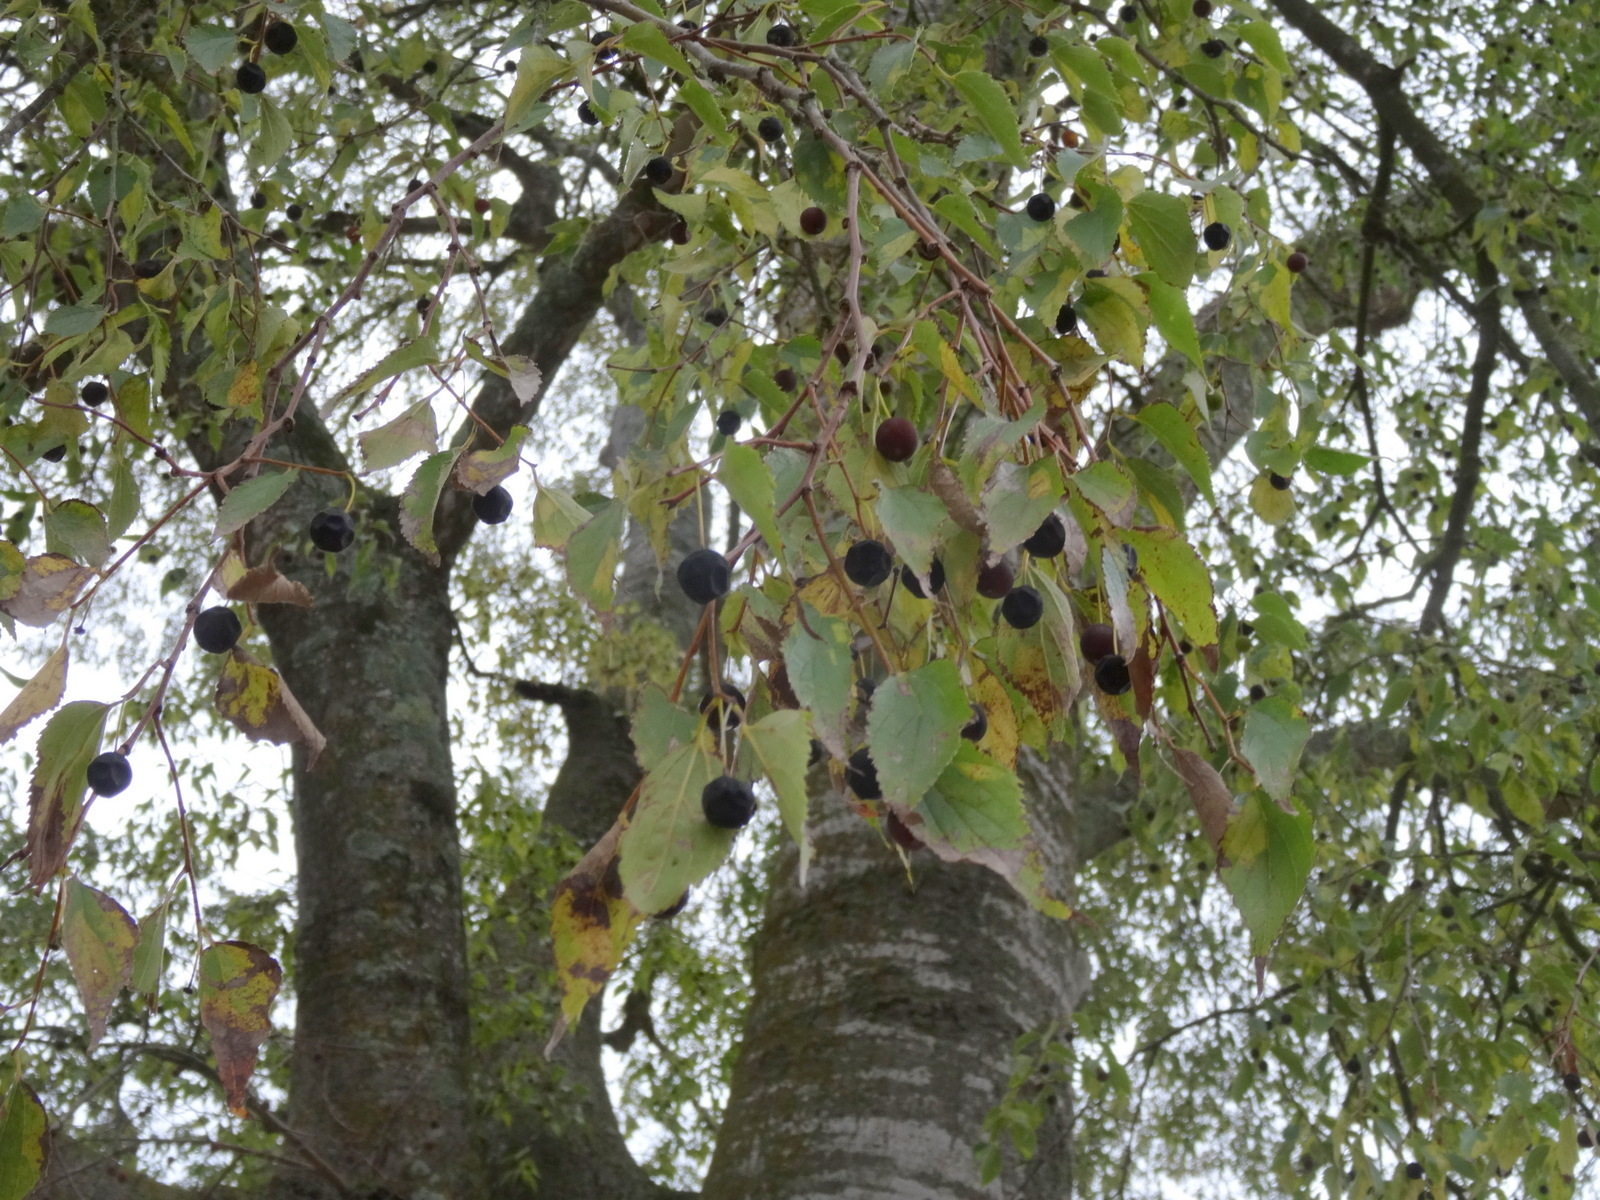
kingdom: Plantae
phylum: Tracheophyta
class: Magnoliopsida
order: Rosales
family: Cannabaceae
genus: Celtis
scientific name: Celtis australis
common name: European hackberry
